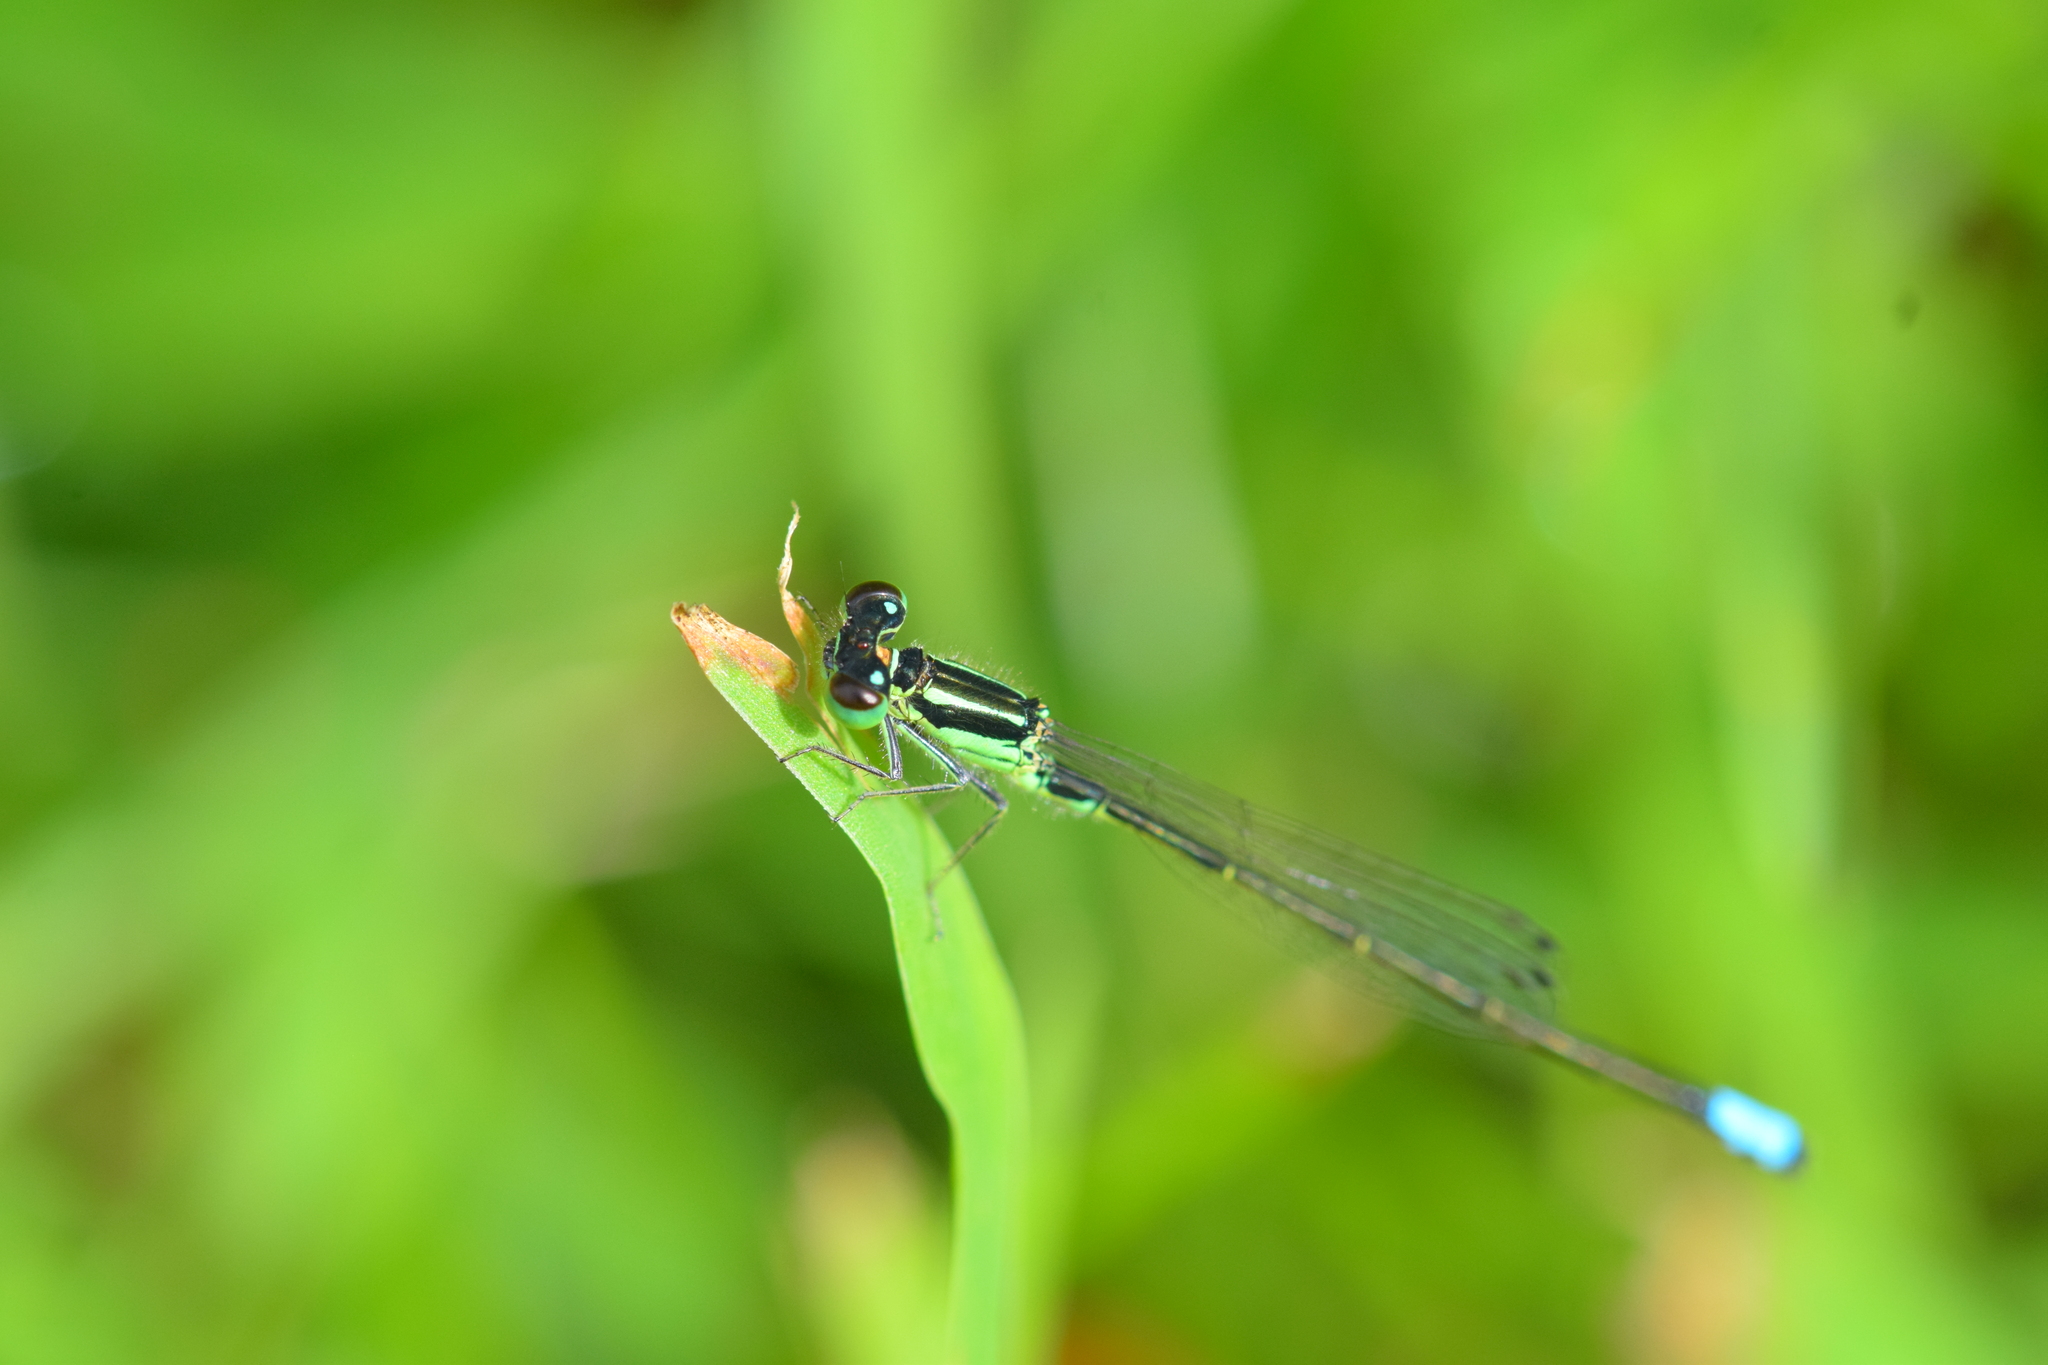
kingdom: Animalia
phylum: Arthropoda
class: Insecta
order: Odonata
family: Coenagrionidae
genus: Ischnura
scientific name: Ischnura verticalis
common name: Eastern forktail
